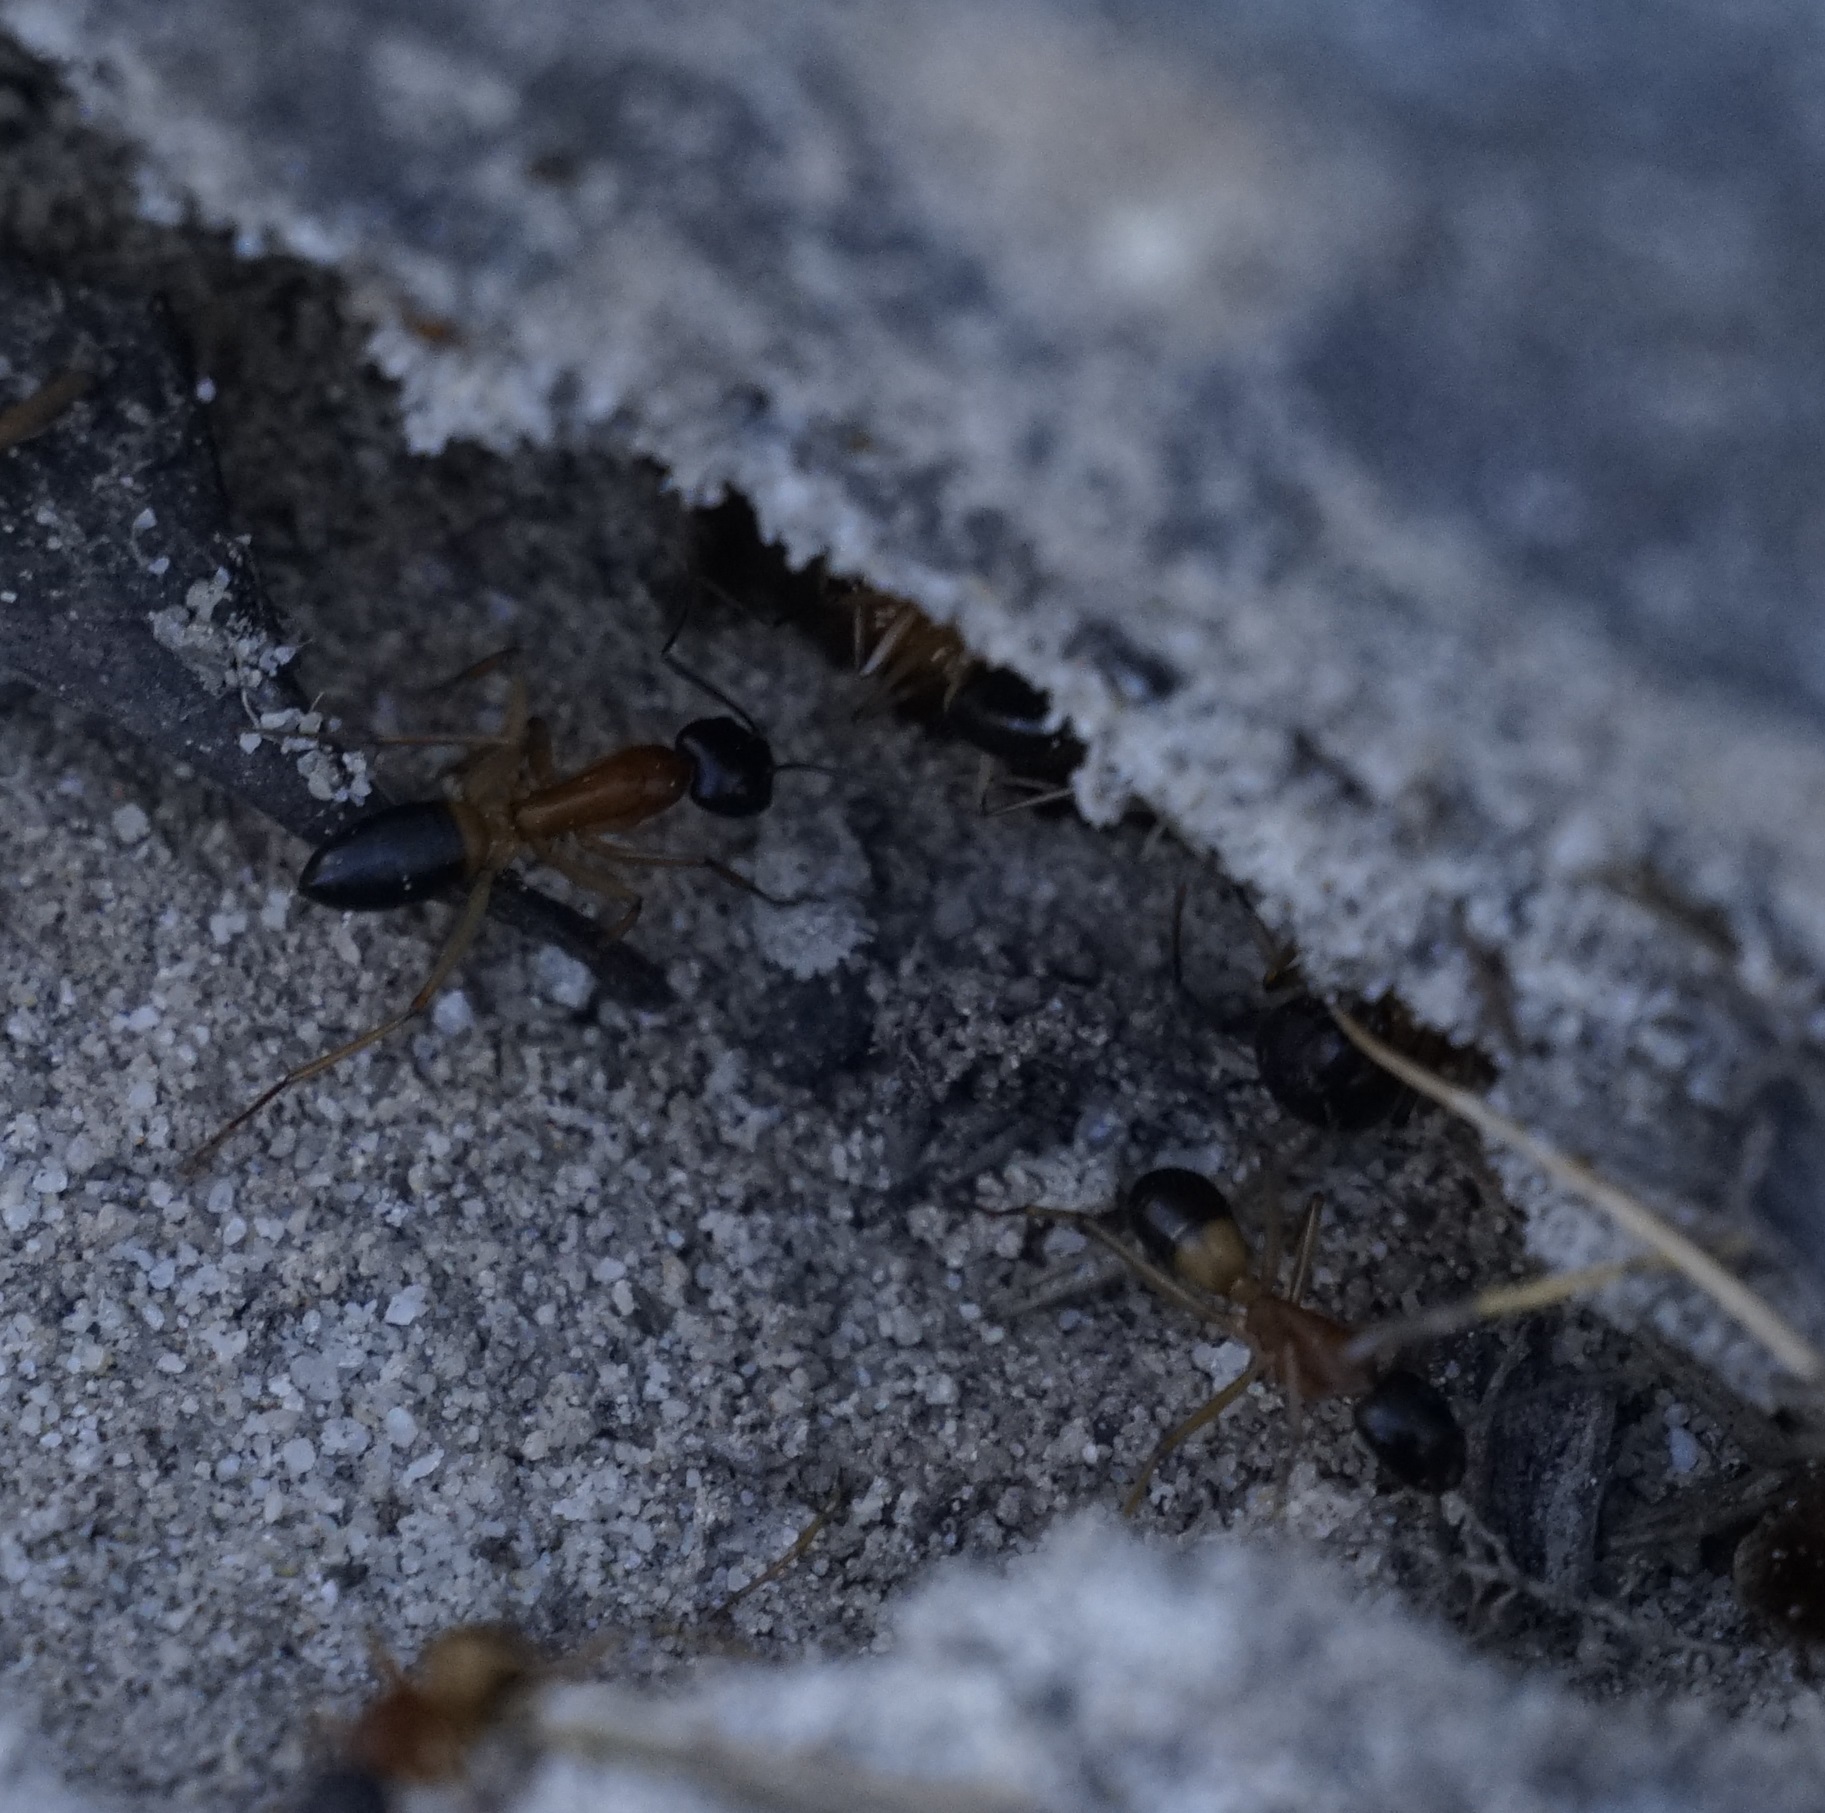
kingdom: Animalia
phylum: Arthropoda
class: Insecta
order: Hymenoptera
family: Formicidae
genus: Camponotus
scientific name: Camponotus consobrinus
